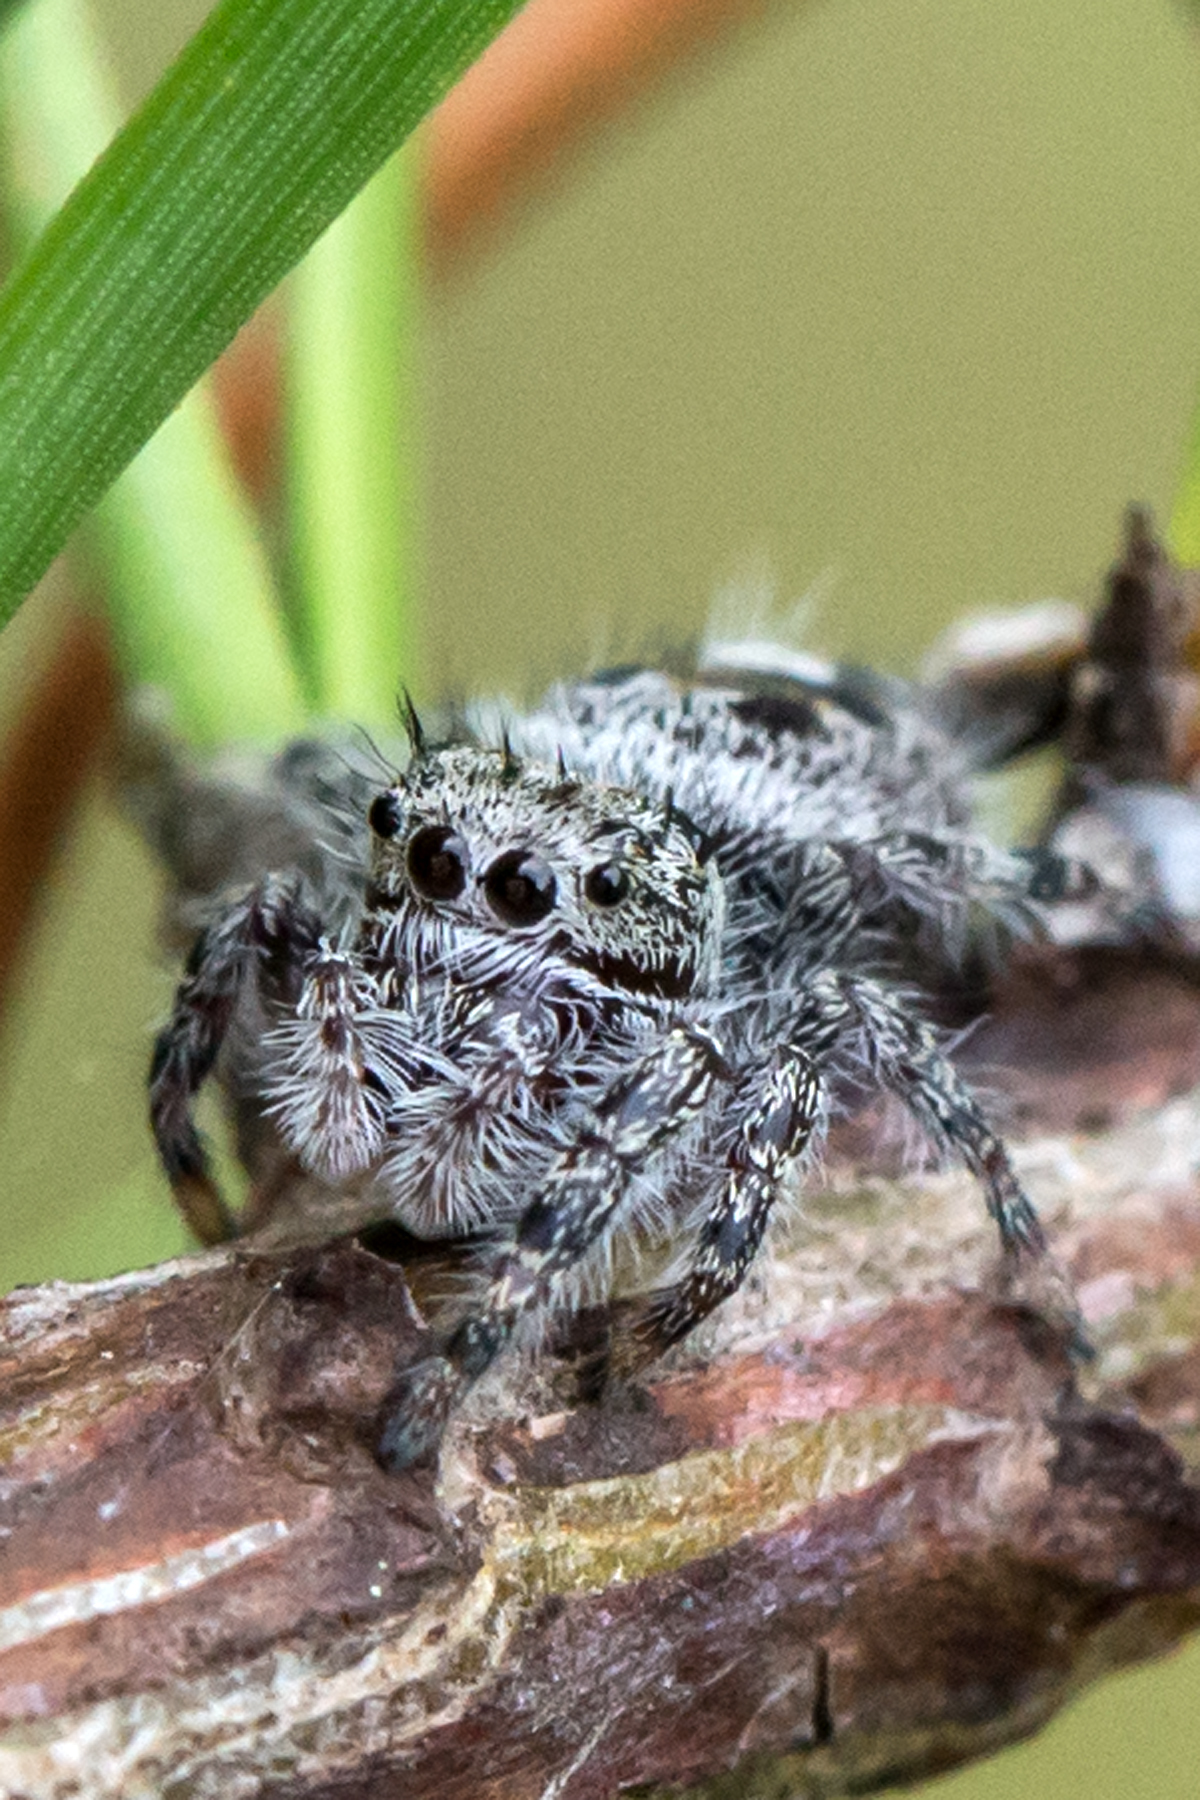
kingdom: Animalia
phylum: Arthropoda
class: Arachnida
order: Araneae
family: Salticidae
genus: Phidippus
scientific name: Phidippus putnami
